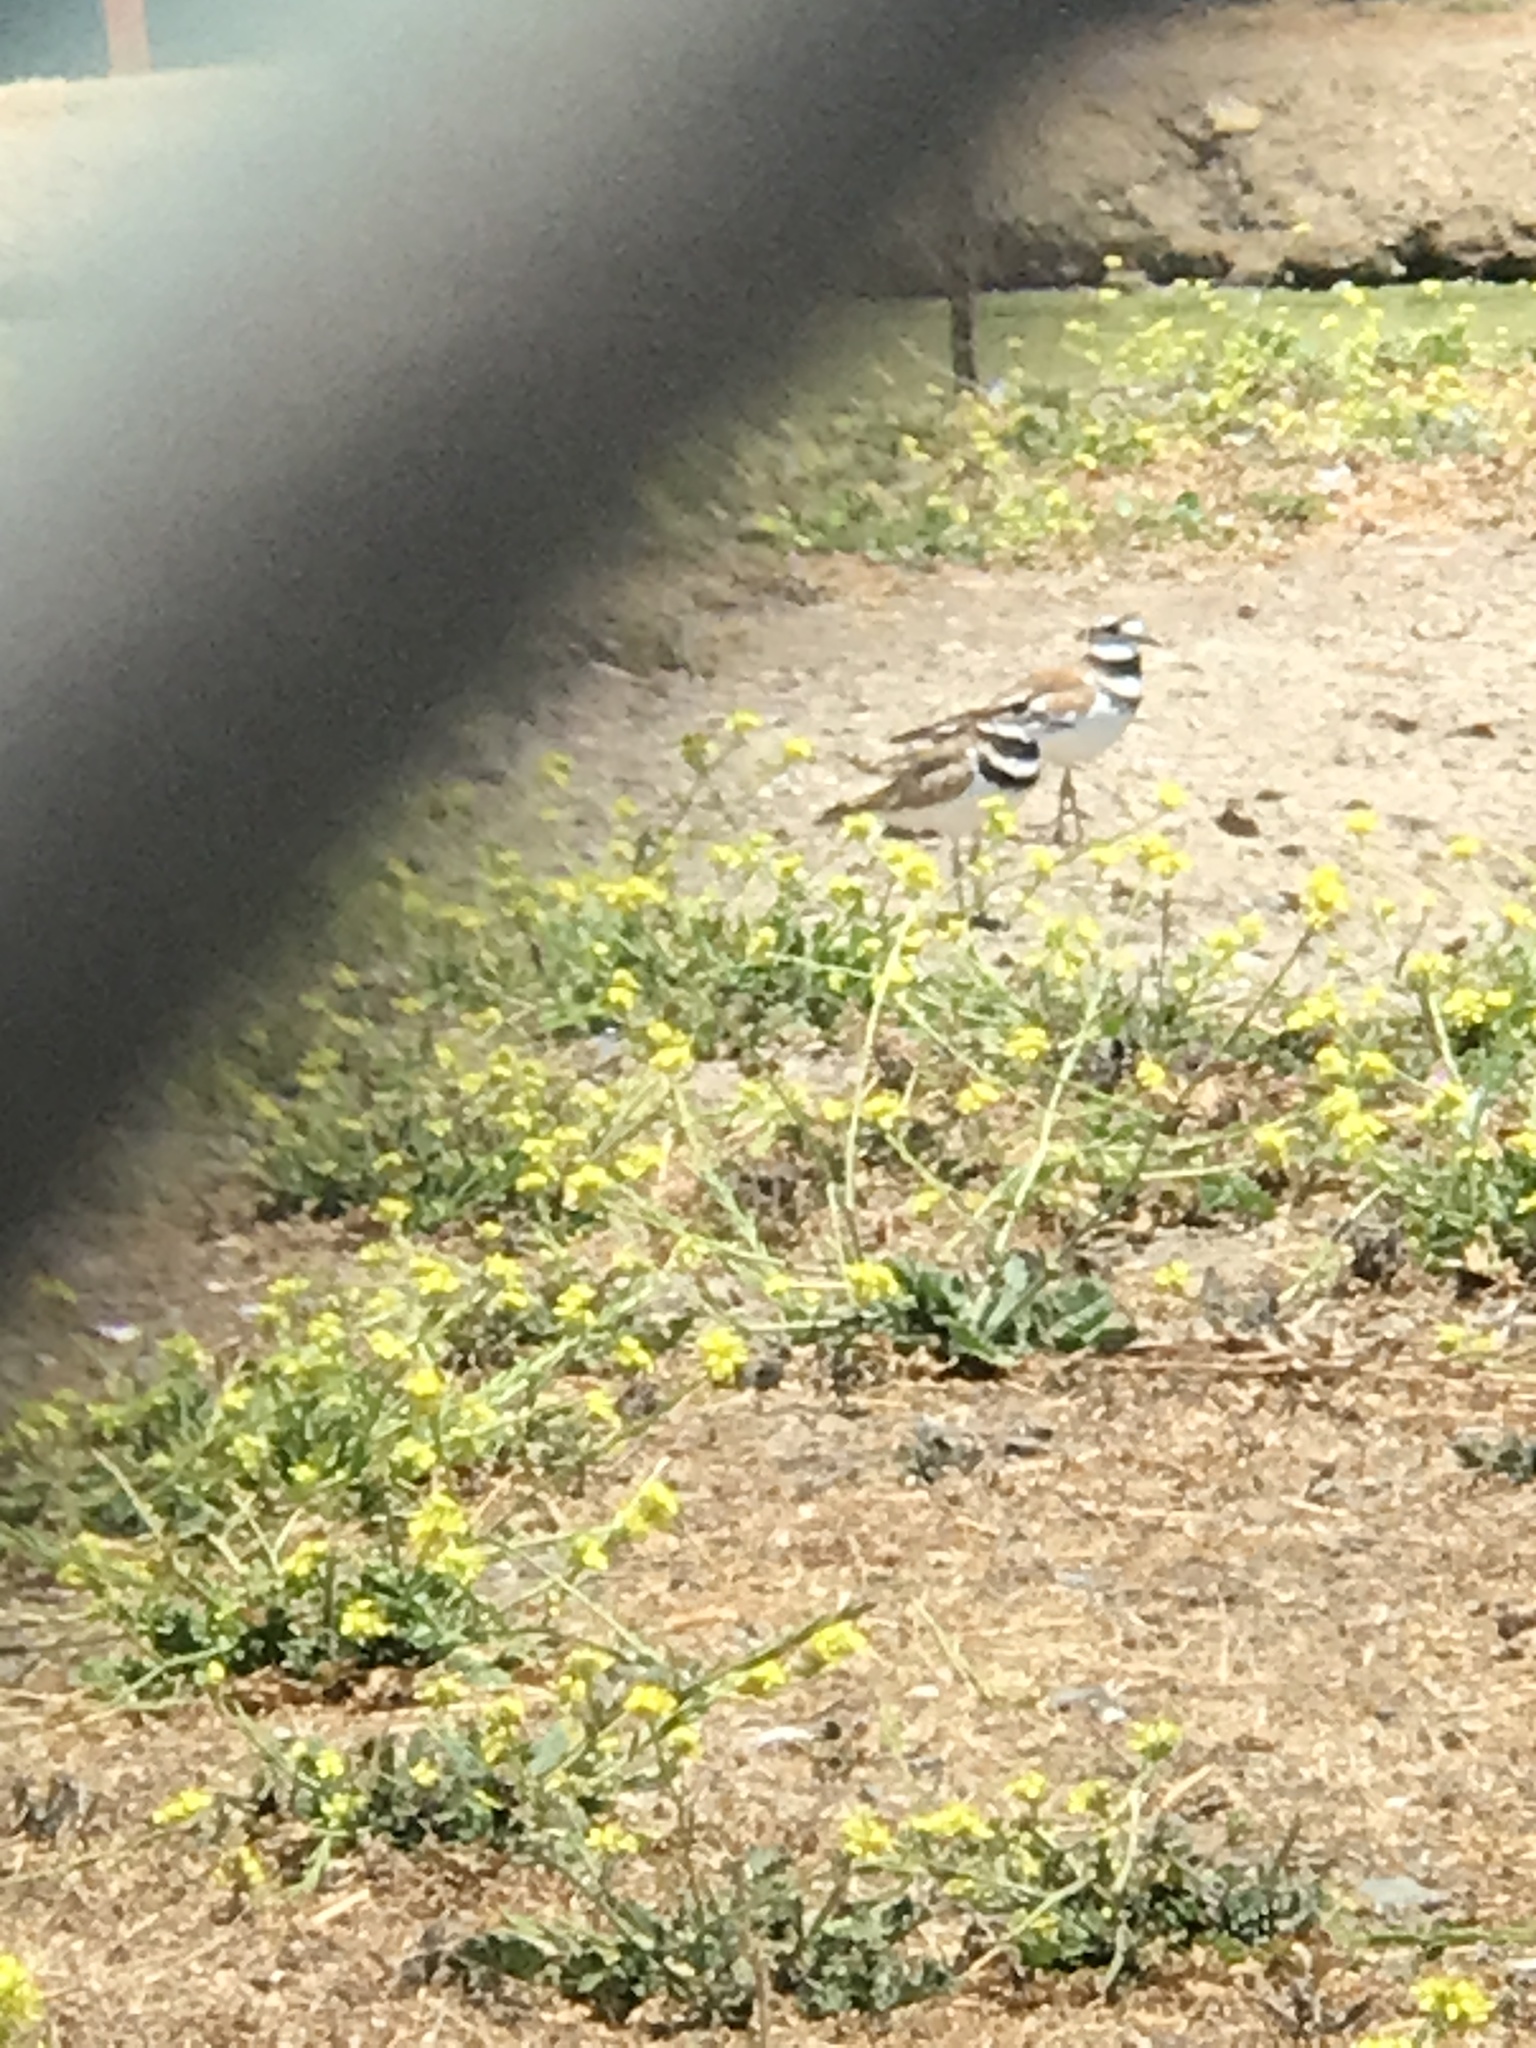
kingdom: Animalia
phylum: Chordata
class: Aves
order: Charadriiformes
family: Charadriidae
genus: Charadrius
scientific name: Charadrius vociferus
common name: Killdeer
